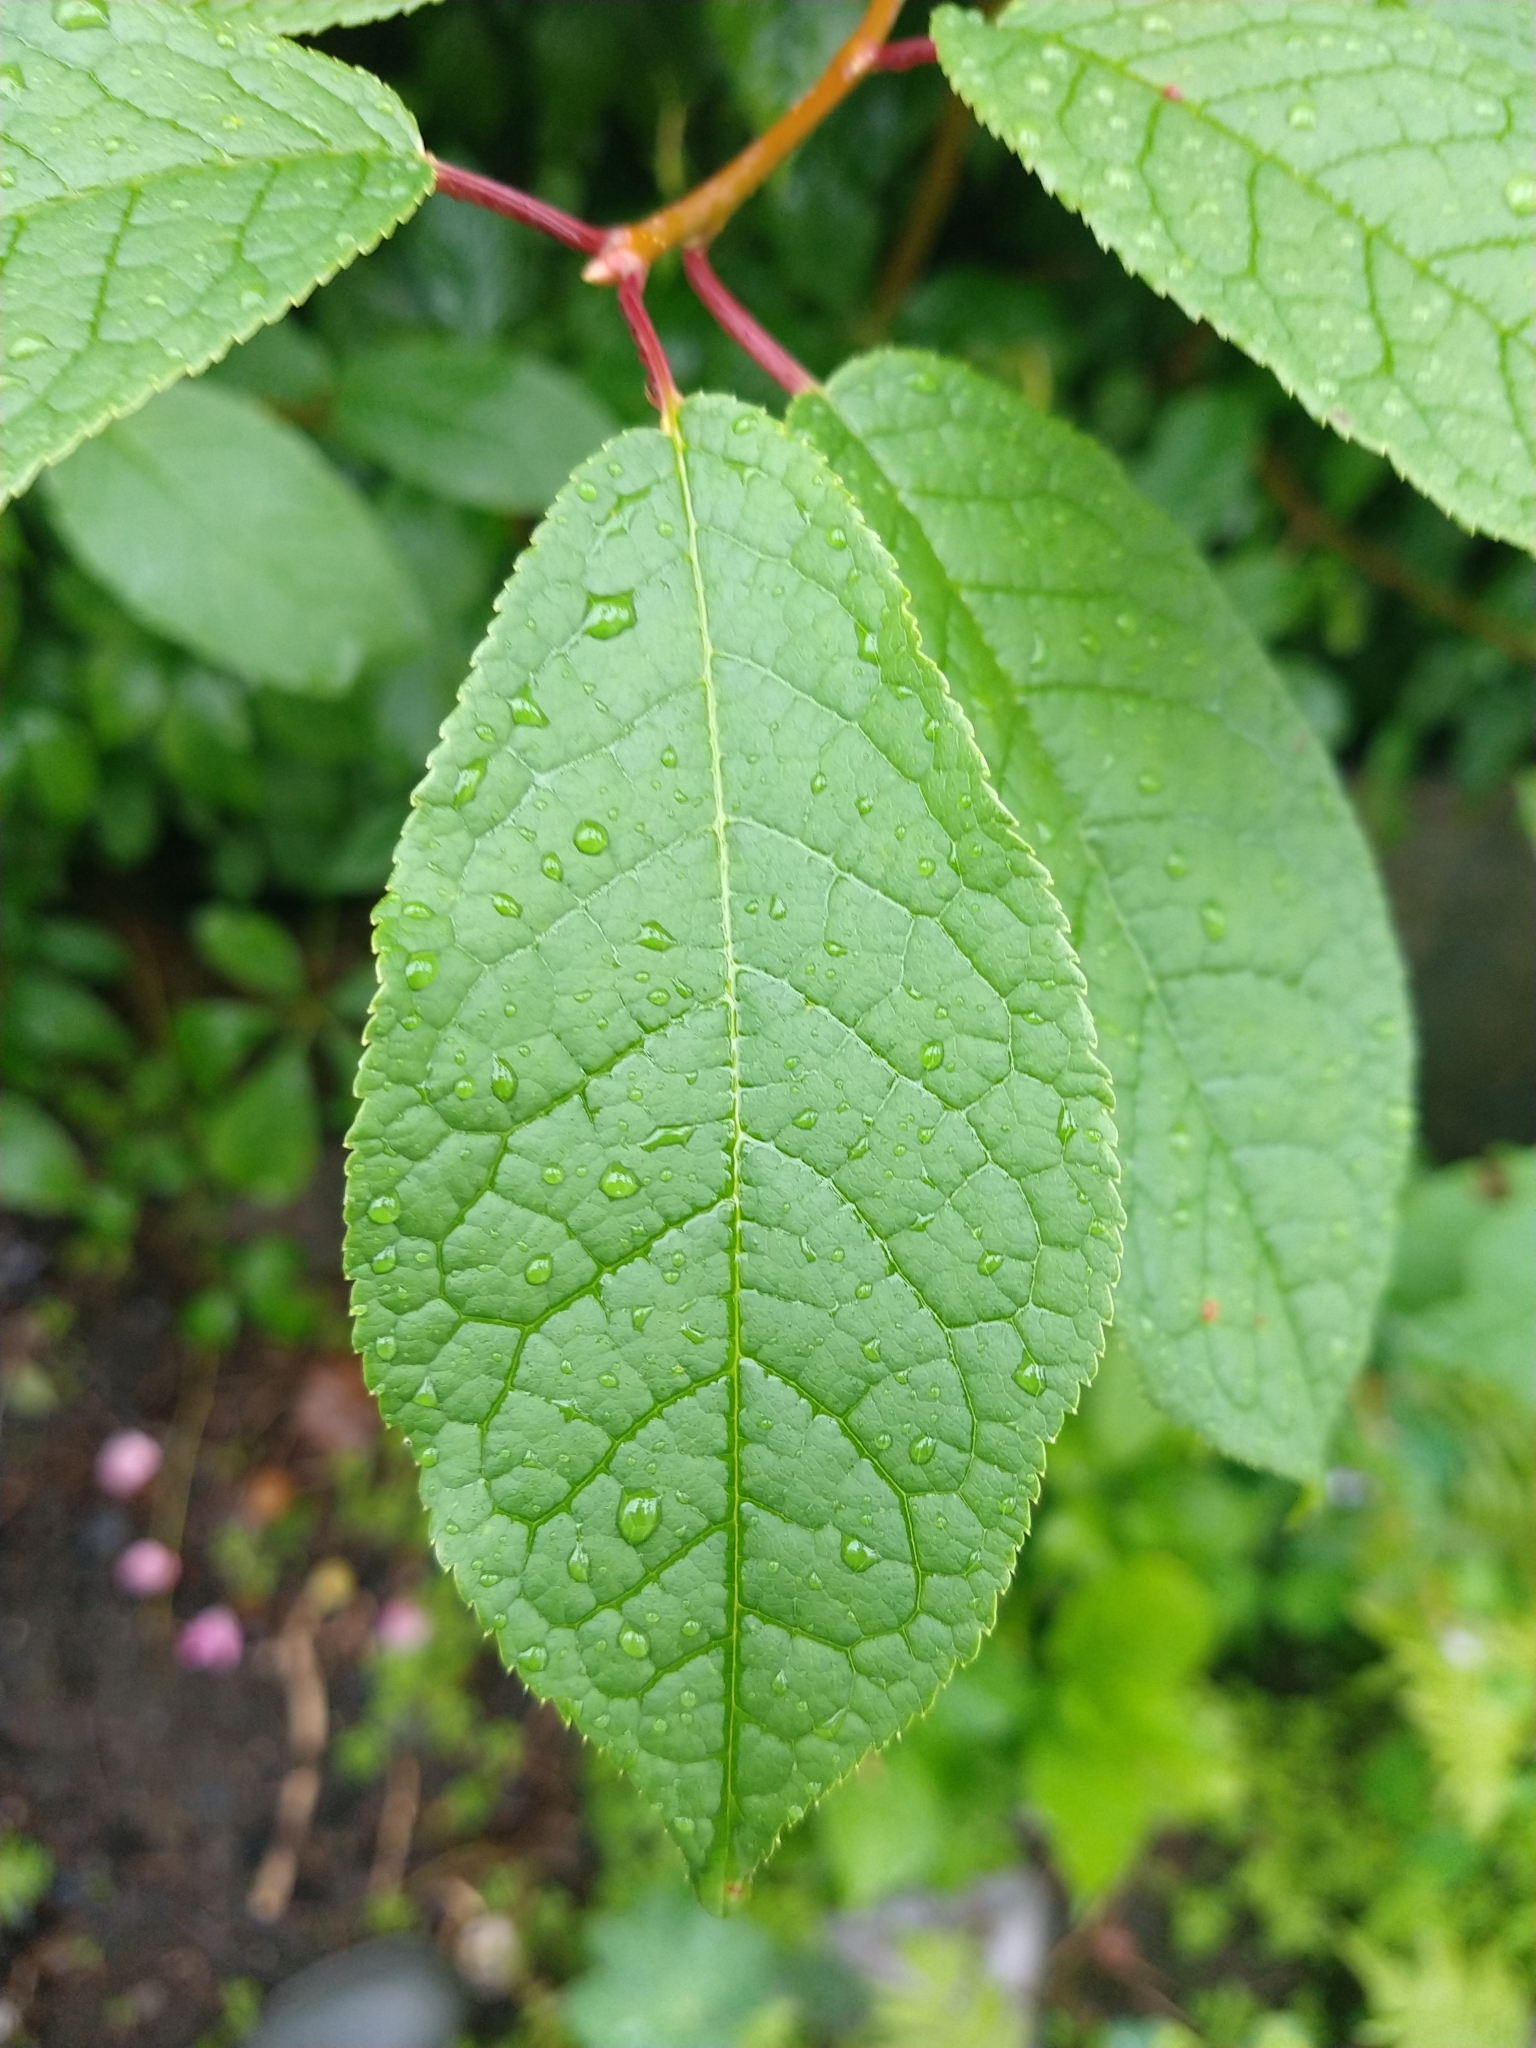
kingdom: Plantae
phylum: Tracheophyta
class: Magnoliopsida
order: Rosales
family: Rosaceae
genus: Prunus
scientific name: Prunus padus
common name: Bird cherry
